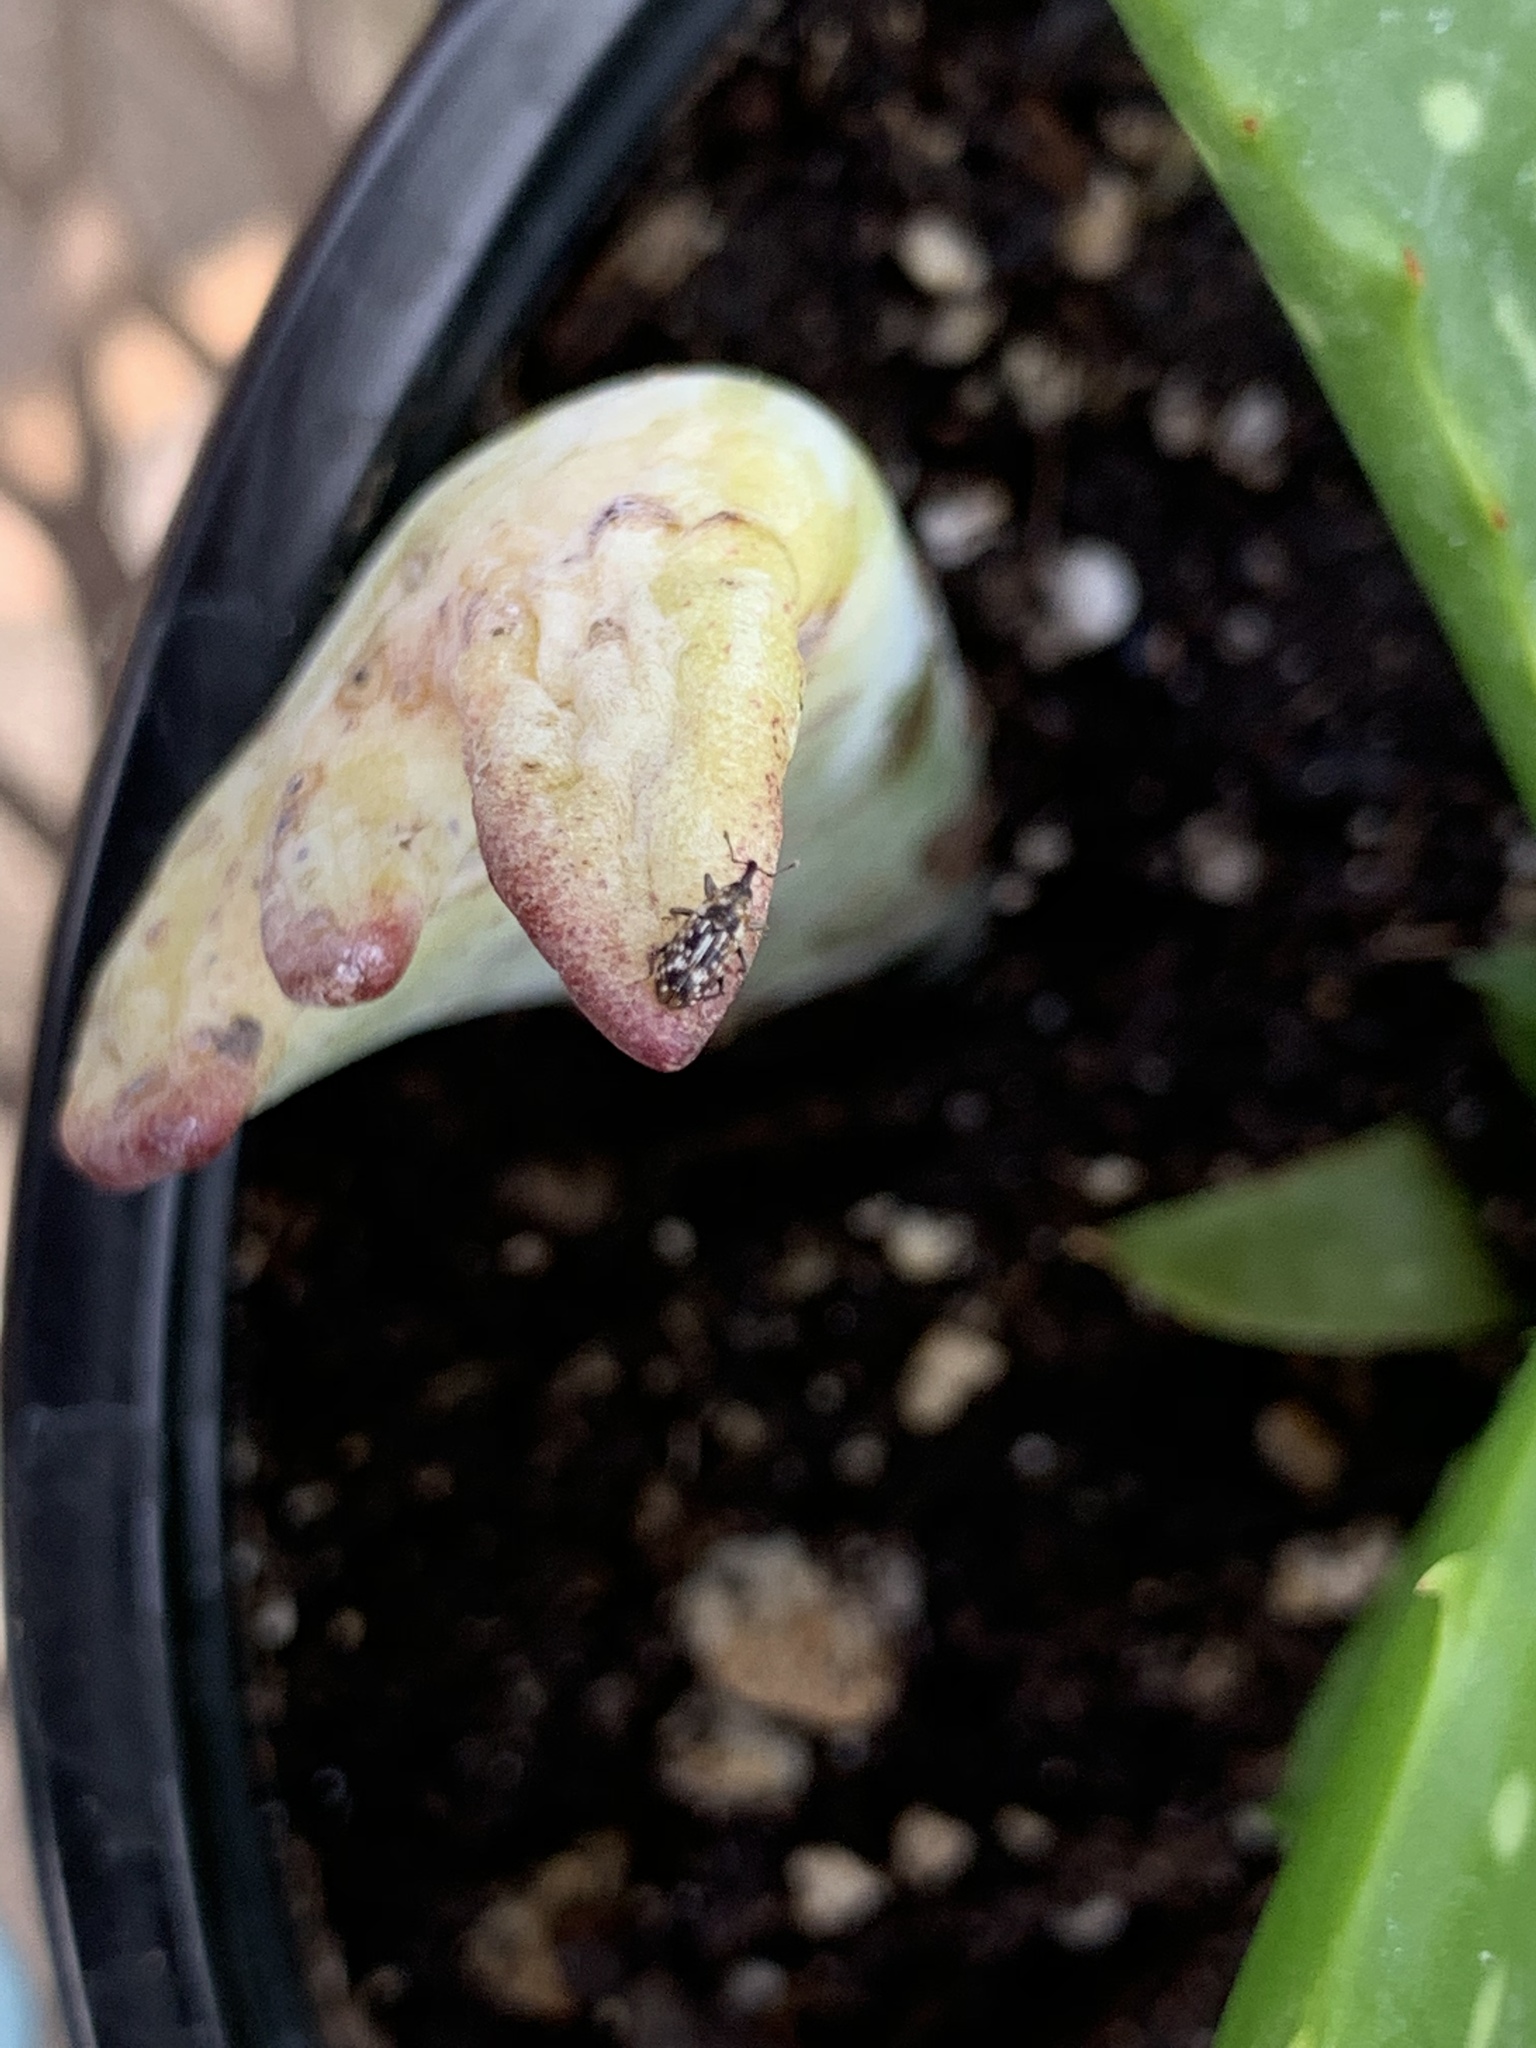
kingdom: Animalia
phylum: Arthropoda
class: Insecta
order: Coleoptera
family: Curculionidae
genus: Cosmobaris
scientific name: Cosmobaris scolopacea
